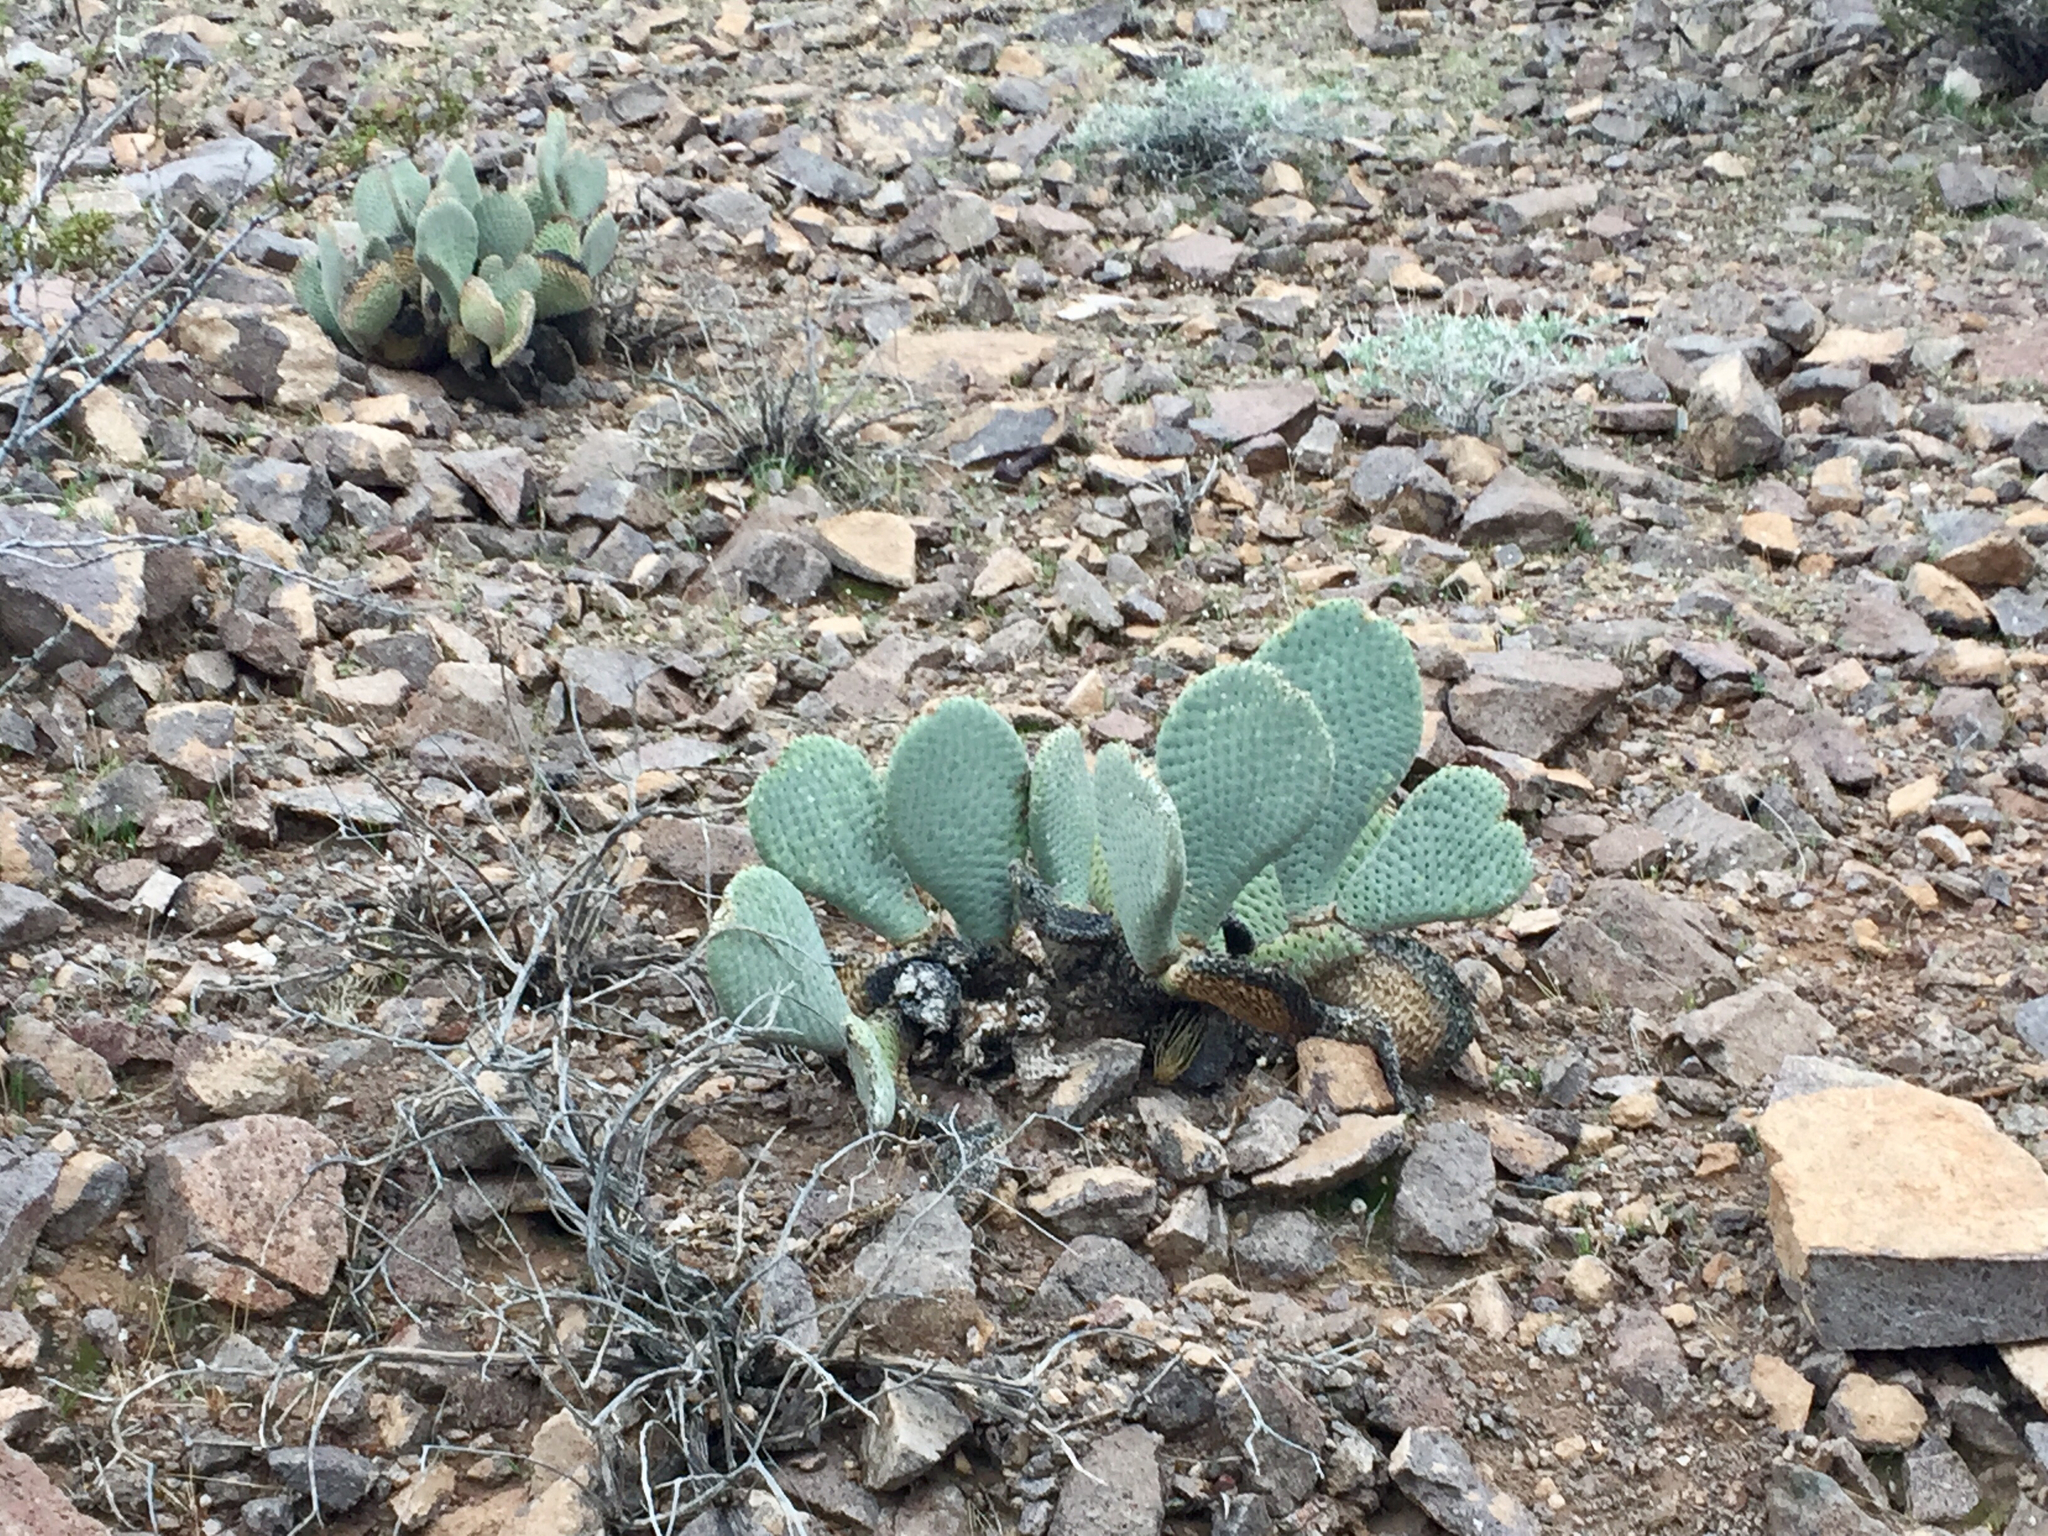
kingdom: Plantae
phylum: Tracheophyta
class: Magnoliopsida
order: Caryophyllales
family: Cactaceae
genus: Opuntia
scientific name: Opuntia basilaris
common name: Beavertail prickly-pear
